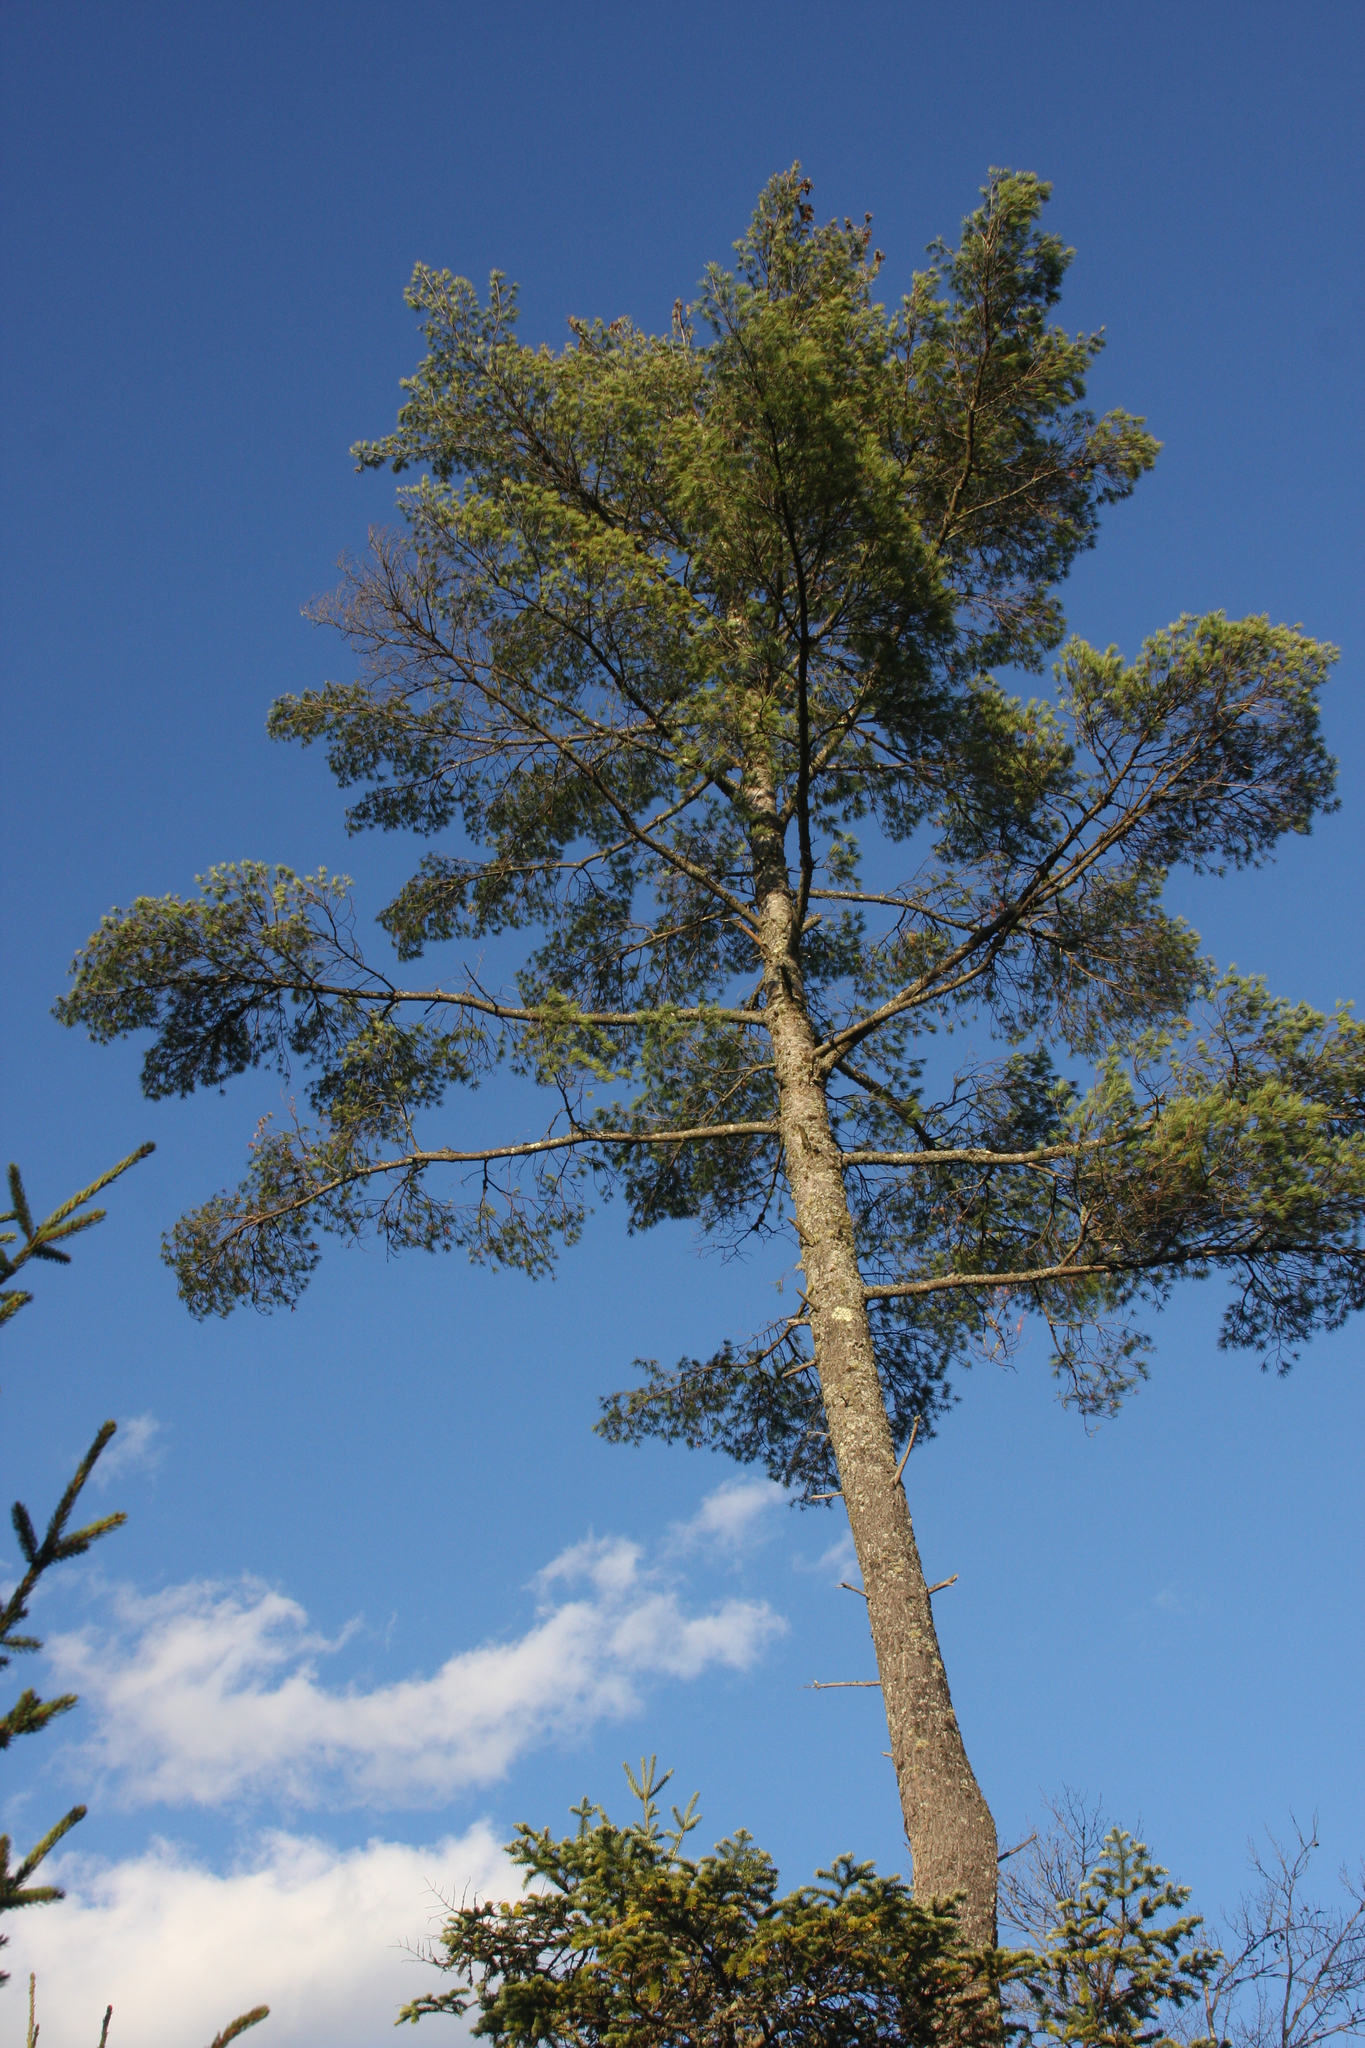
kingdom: Plantae
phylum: Tracheophyta
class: Pinopsida
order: Pinales
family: Pinaceae
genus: Pinus
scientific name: Pinus strobus
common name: Weymouth pine
